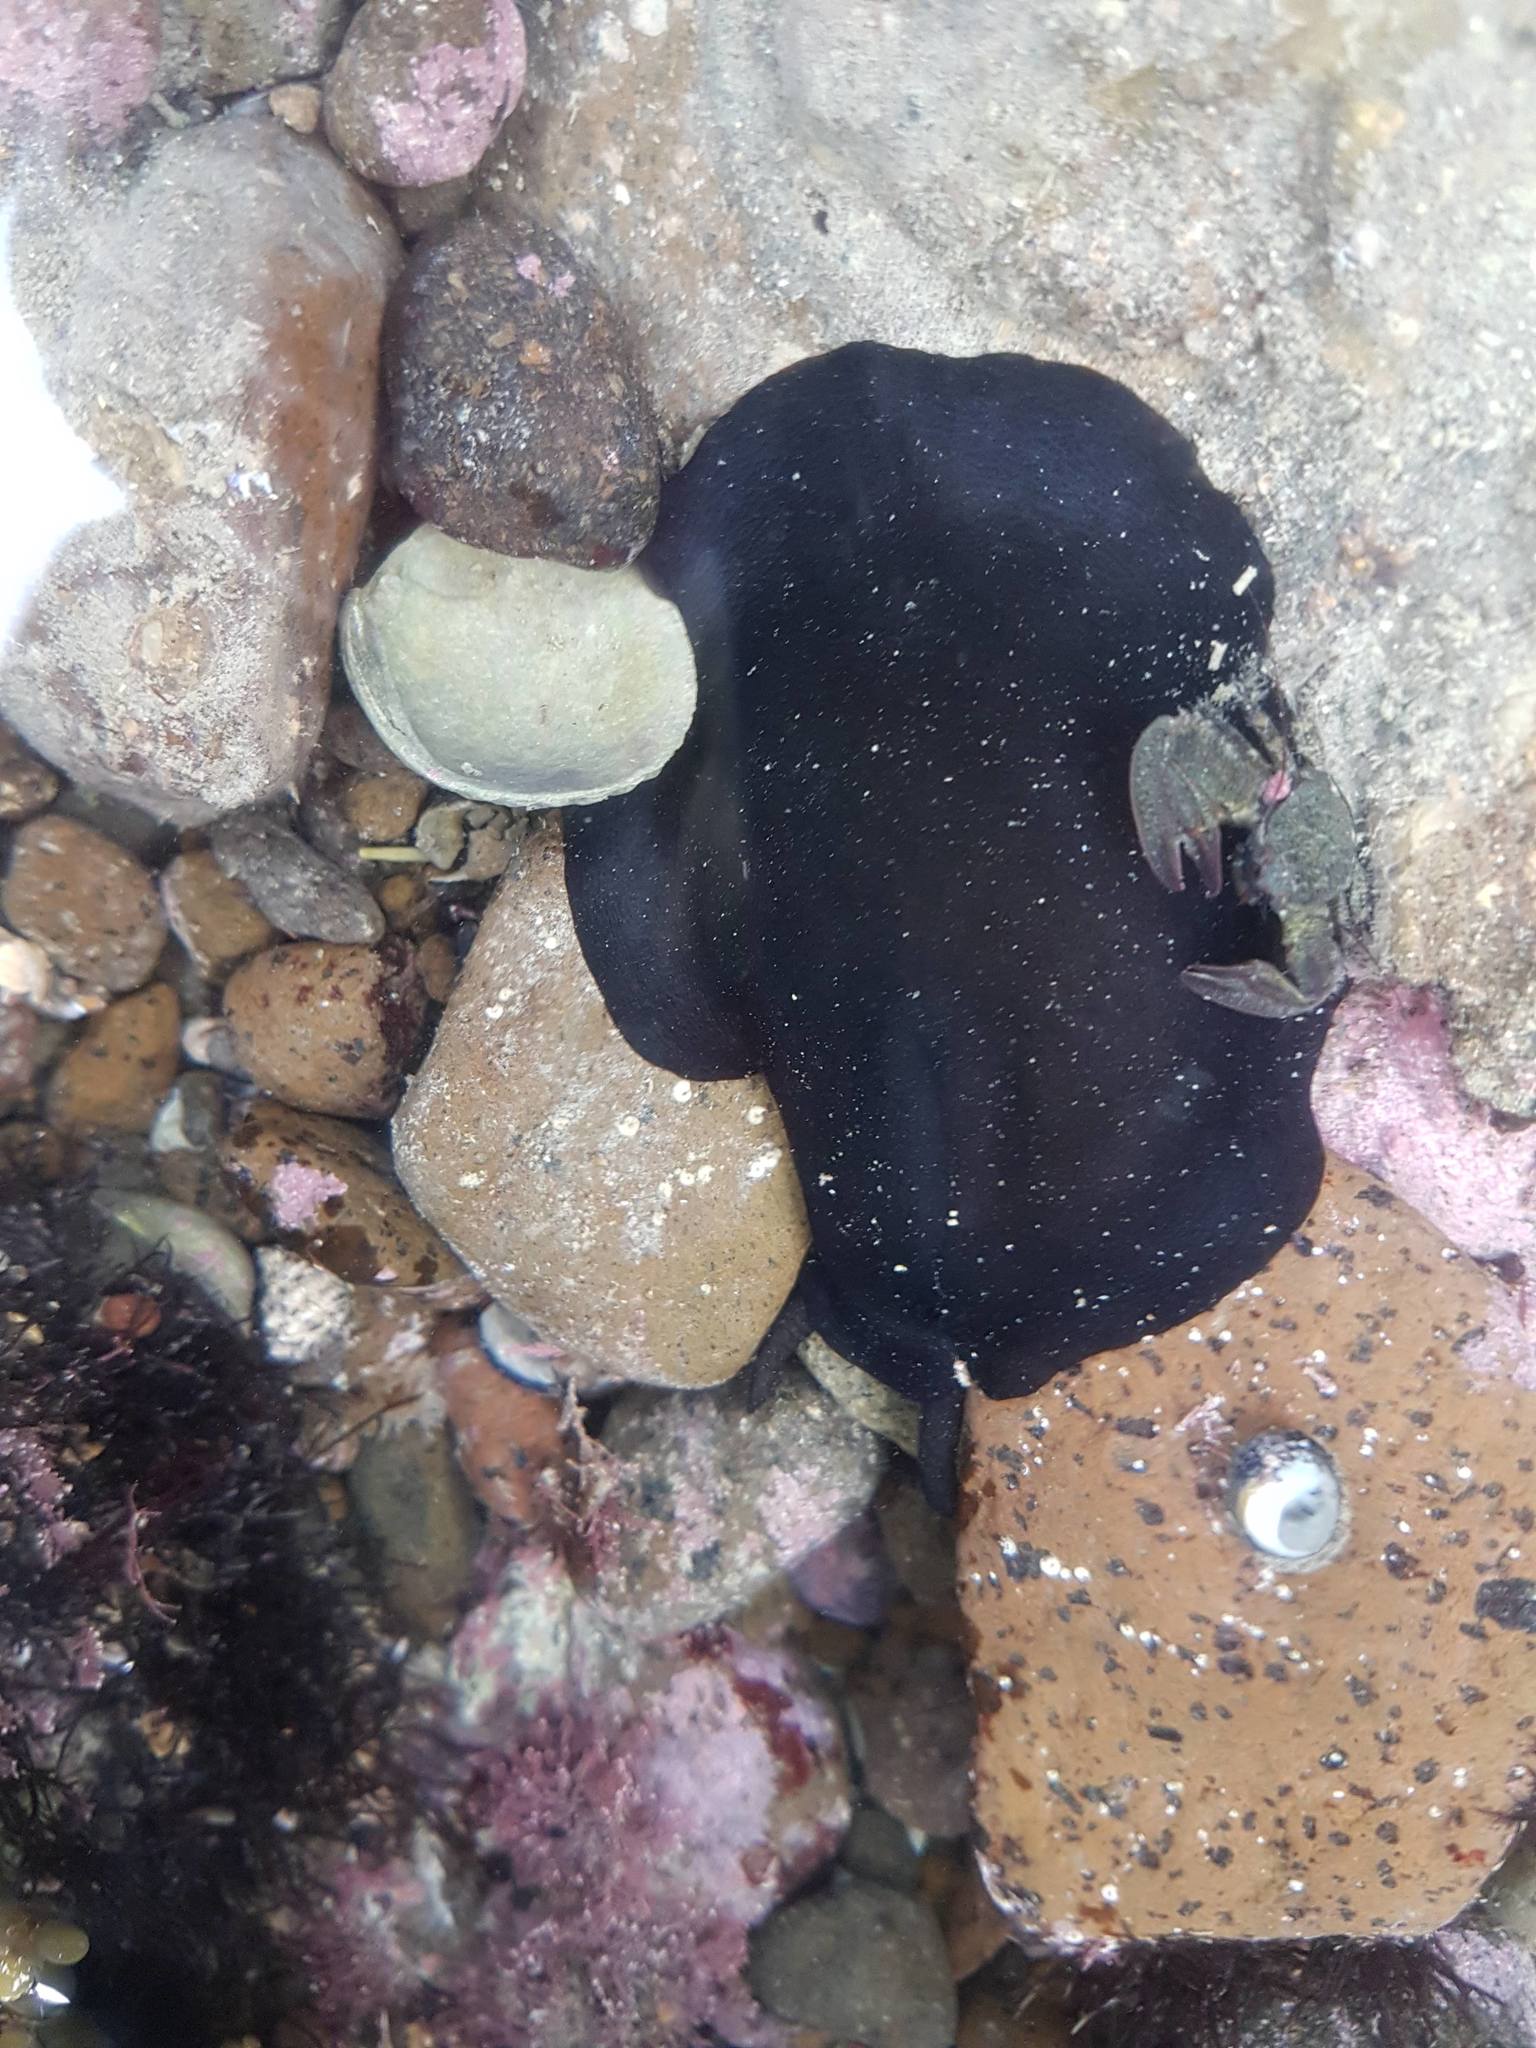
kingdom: Animalia
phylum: Mollusca
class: Gastropoda
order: Lepetellida
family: Fissurellidae
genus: Scutus
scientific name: Scutus breviculus
